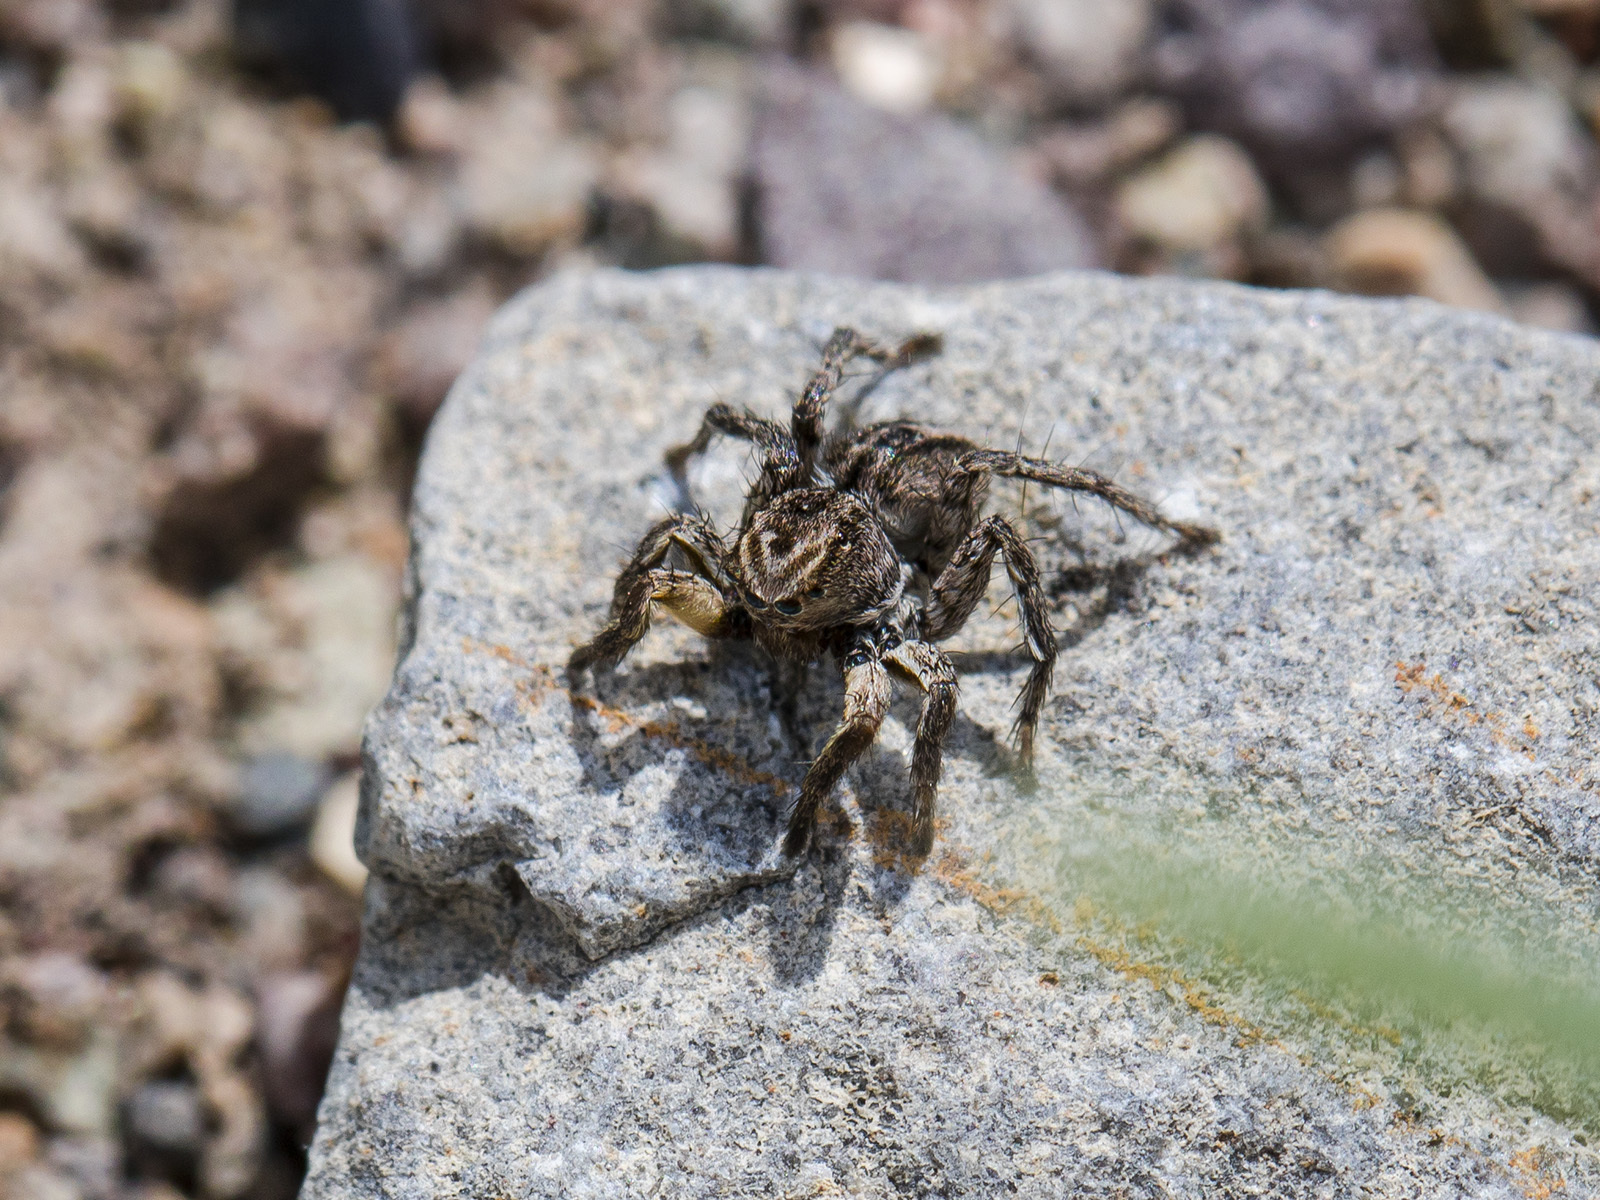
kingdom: Animalia
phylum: Arthropoda
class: Arachnida
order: Araneae
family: Salticidae
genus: Aelurillus
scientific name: Aelurillus v-insignitus
